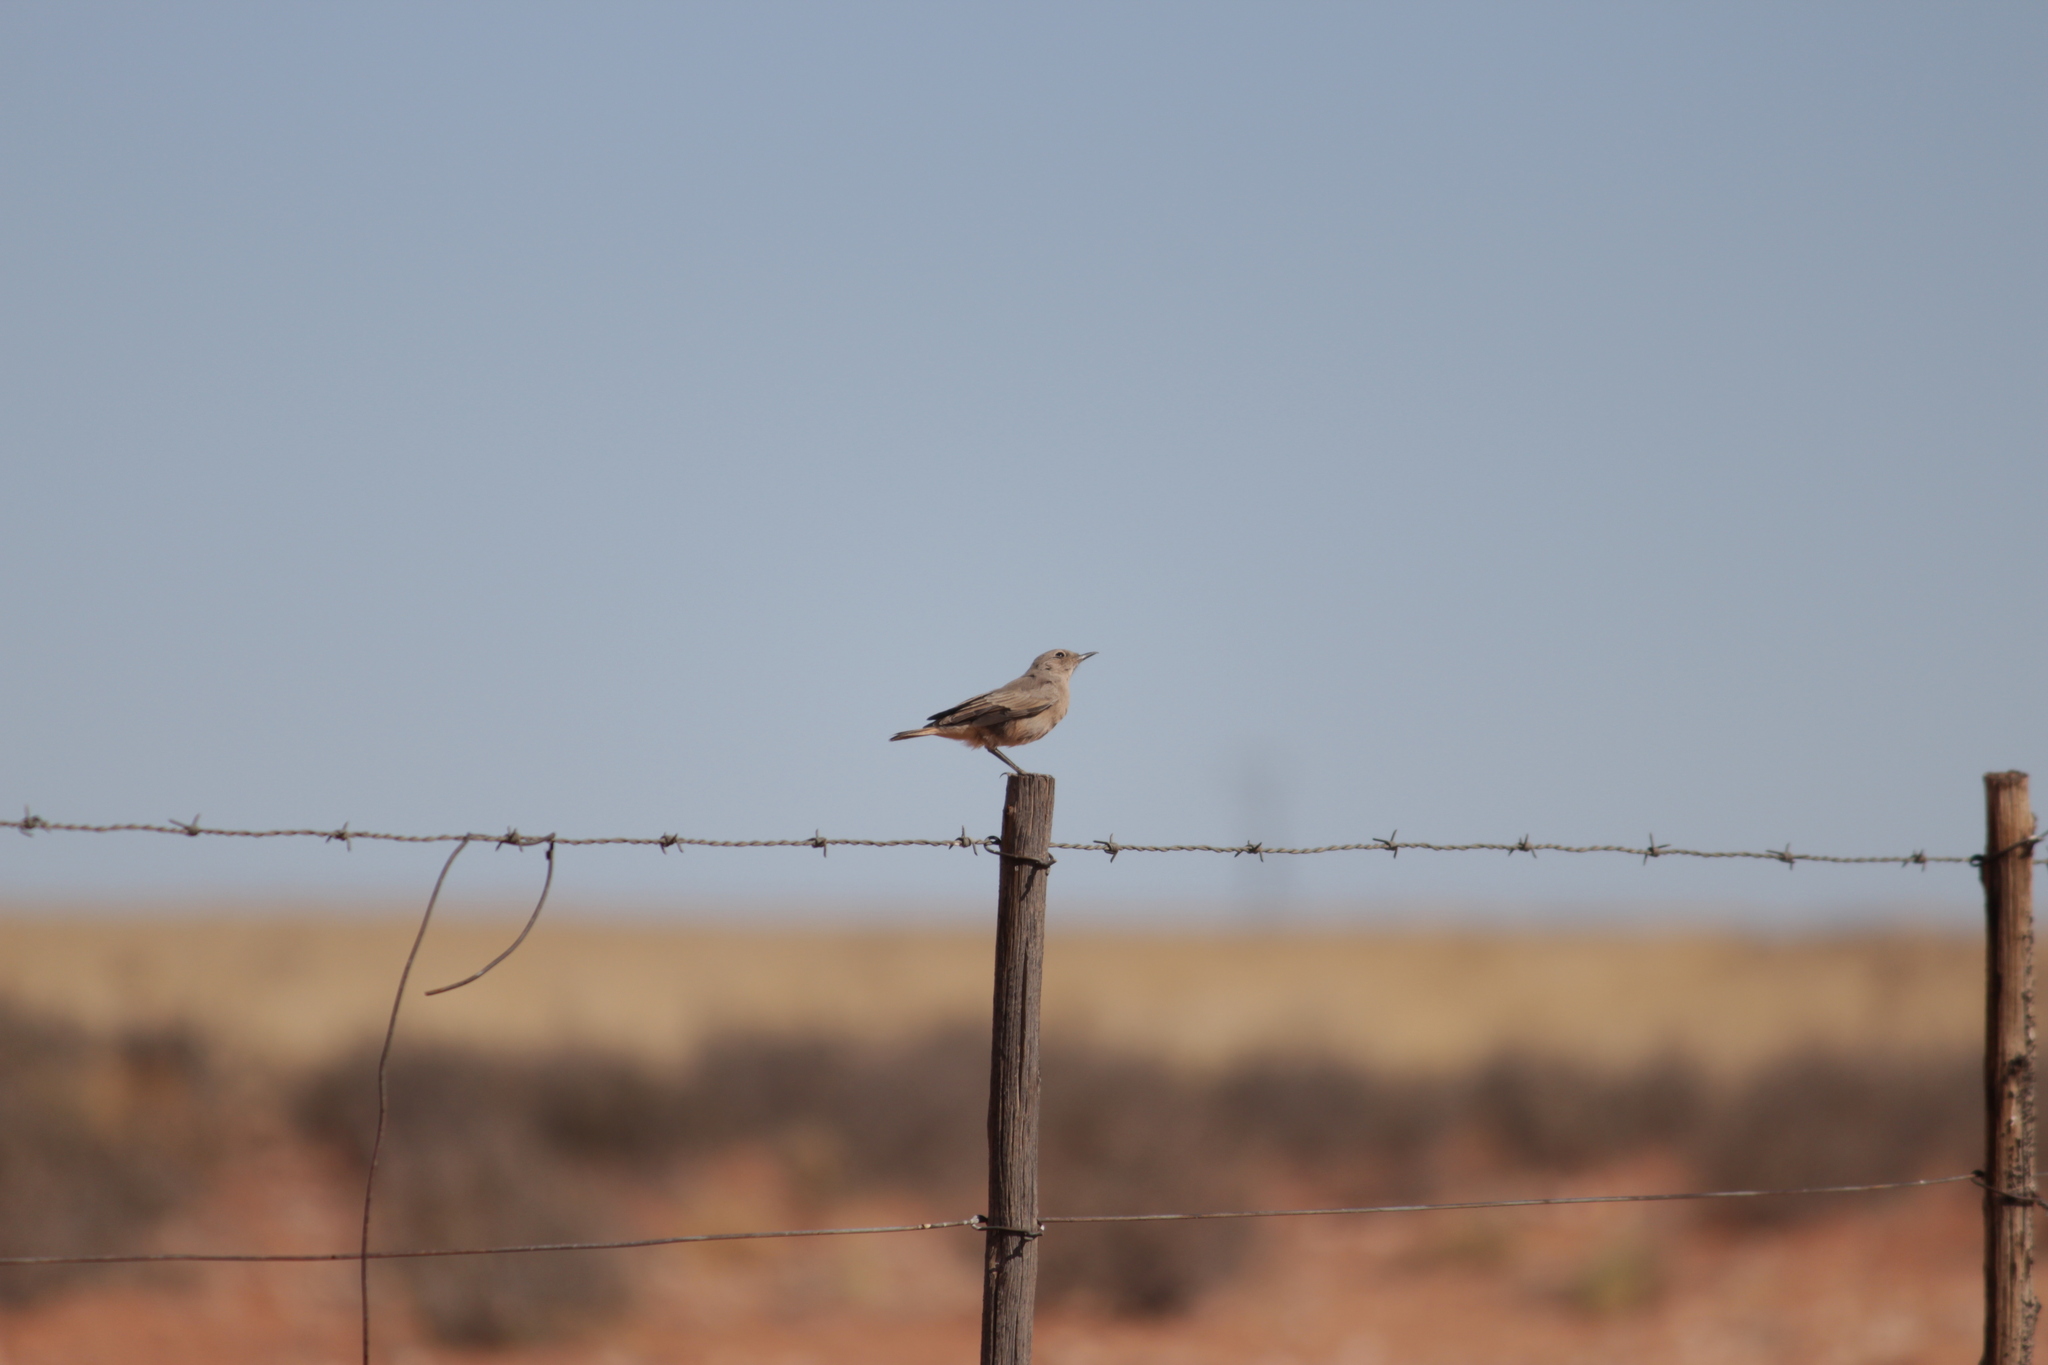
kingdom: Animalia
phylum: Chordata
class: Aves
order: Passeriformes
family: Muscicapidae
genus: Emarginata
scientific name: Emarginata tractrac
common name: Tractrac chat
